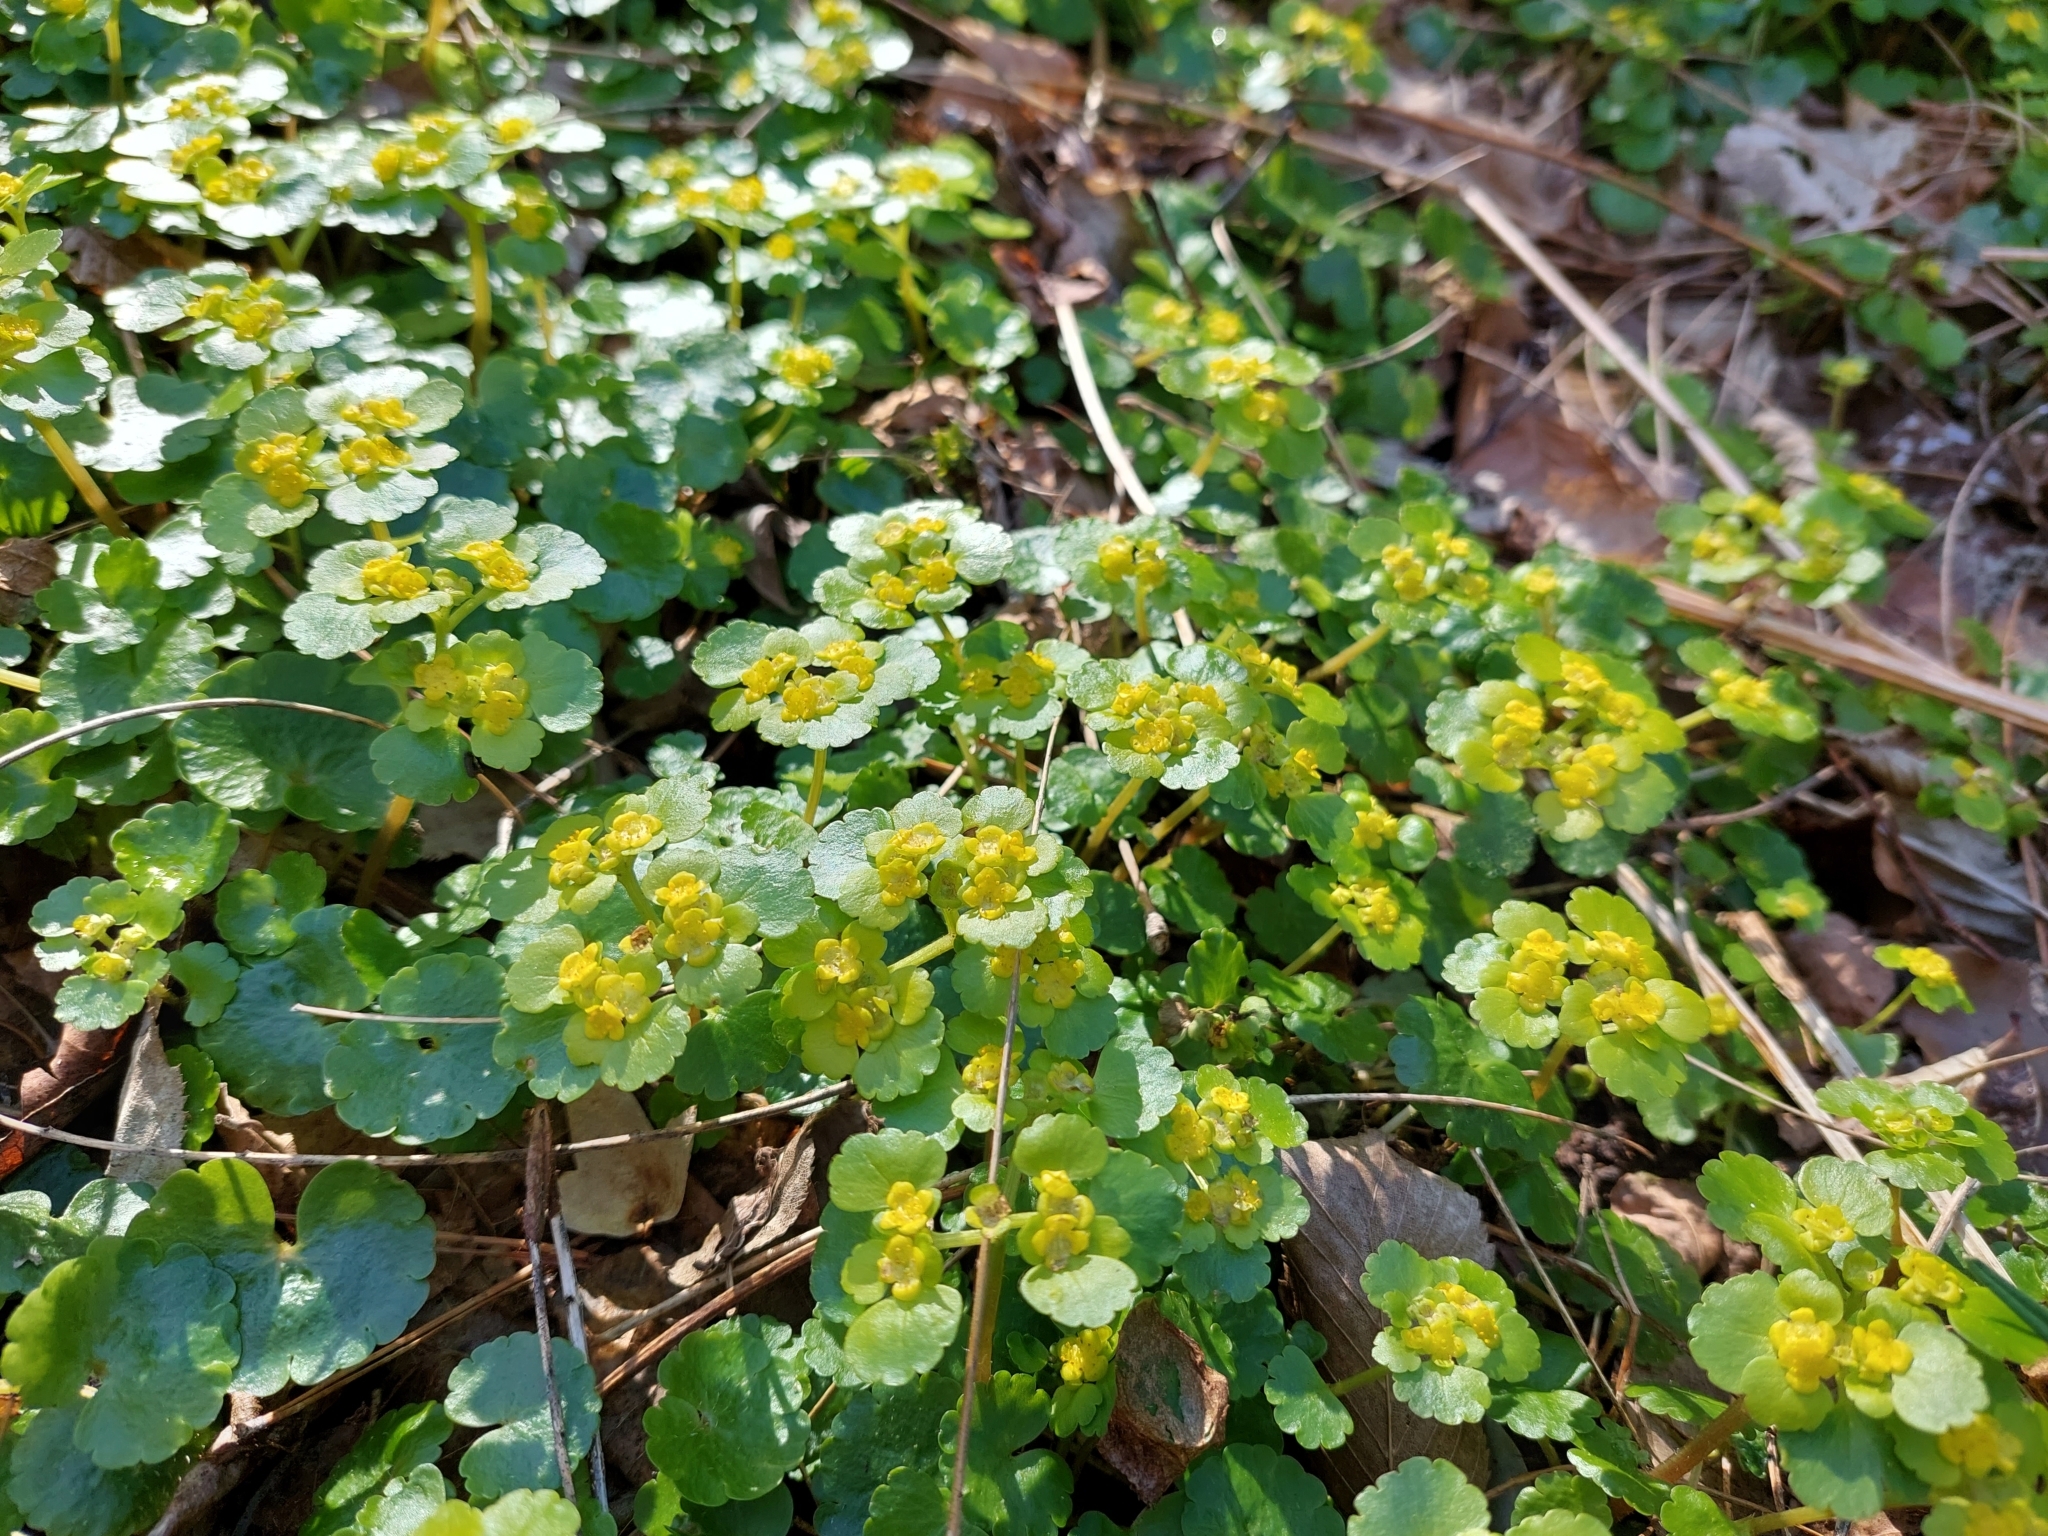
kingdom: Plantae
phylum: Tracheophyta
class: Magnoliopsida
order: Saxifragales
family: Saxifragaceae
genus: Chrysosplenium
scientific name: Chrysosplenium alternifolium
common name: Alternate-leaved golden-saxifrage
